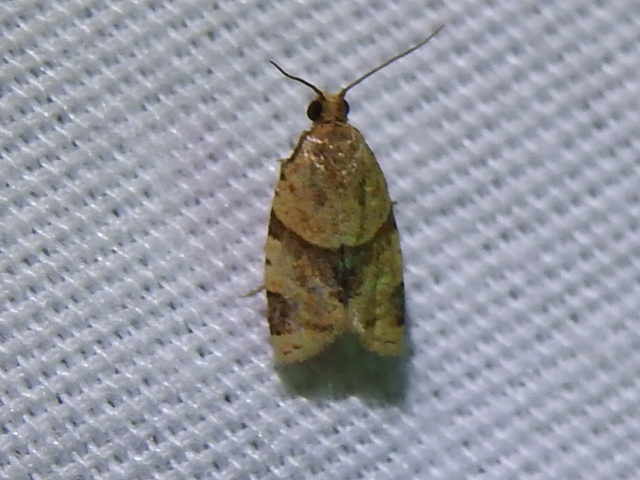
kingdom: Animalia
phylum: Arthropoda
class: Insecta
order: Lepidoptera
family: Tortricidae
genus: Clepsis
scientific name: Clepsis peritana
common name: Garden tortrix
